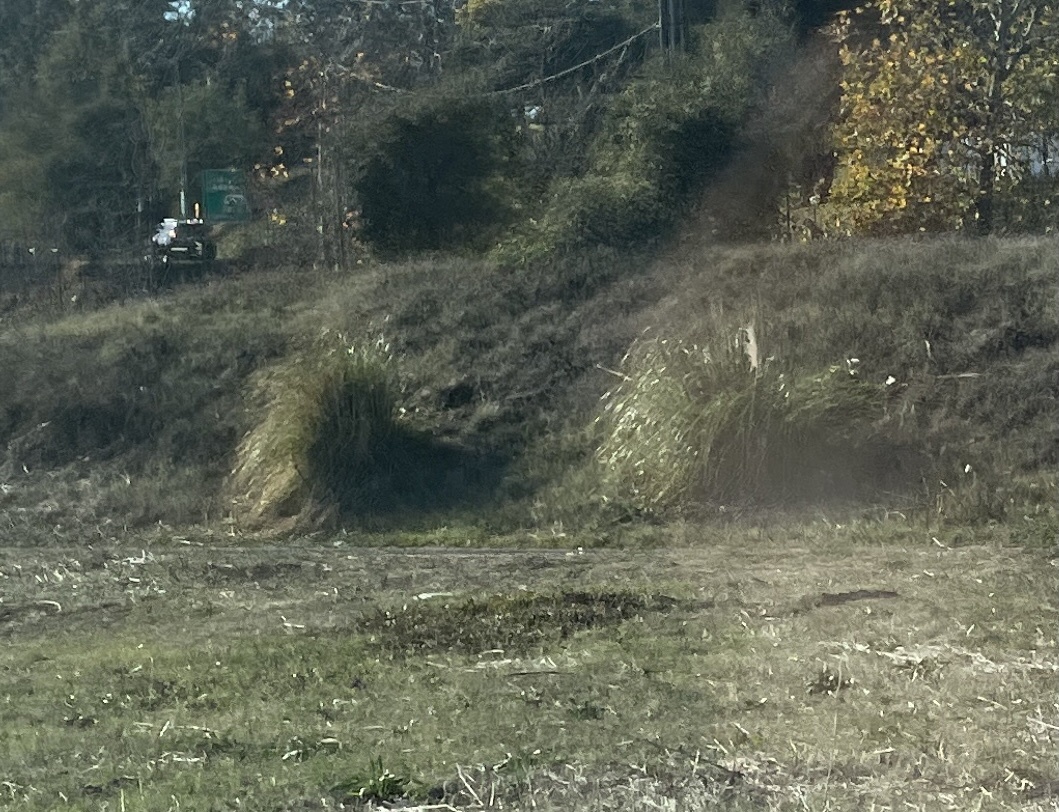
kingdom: Plantae
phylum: Tracheophyta
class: Liliopsida
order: Poales
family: Poaceae
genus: Cortaderia
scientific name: Cortaderia selloana
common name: Uruguayan pampas grass
